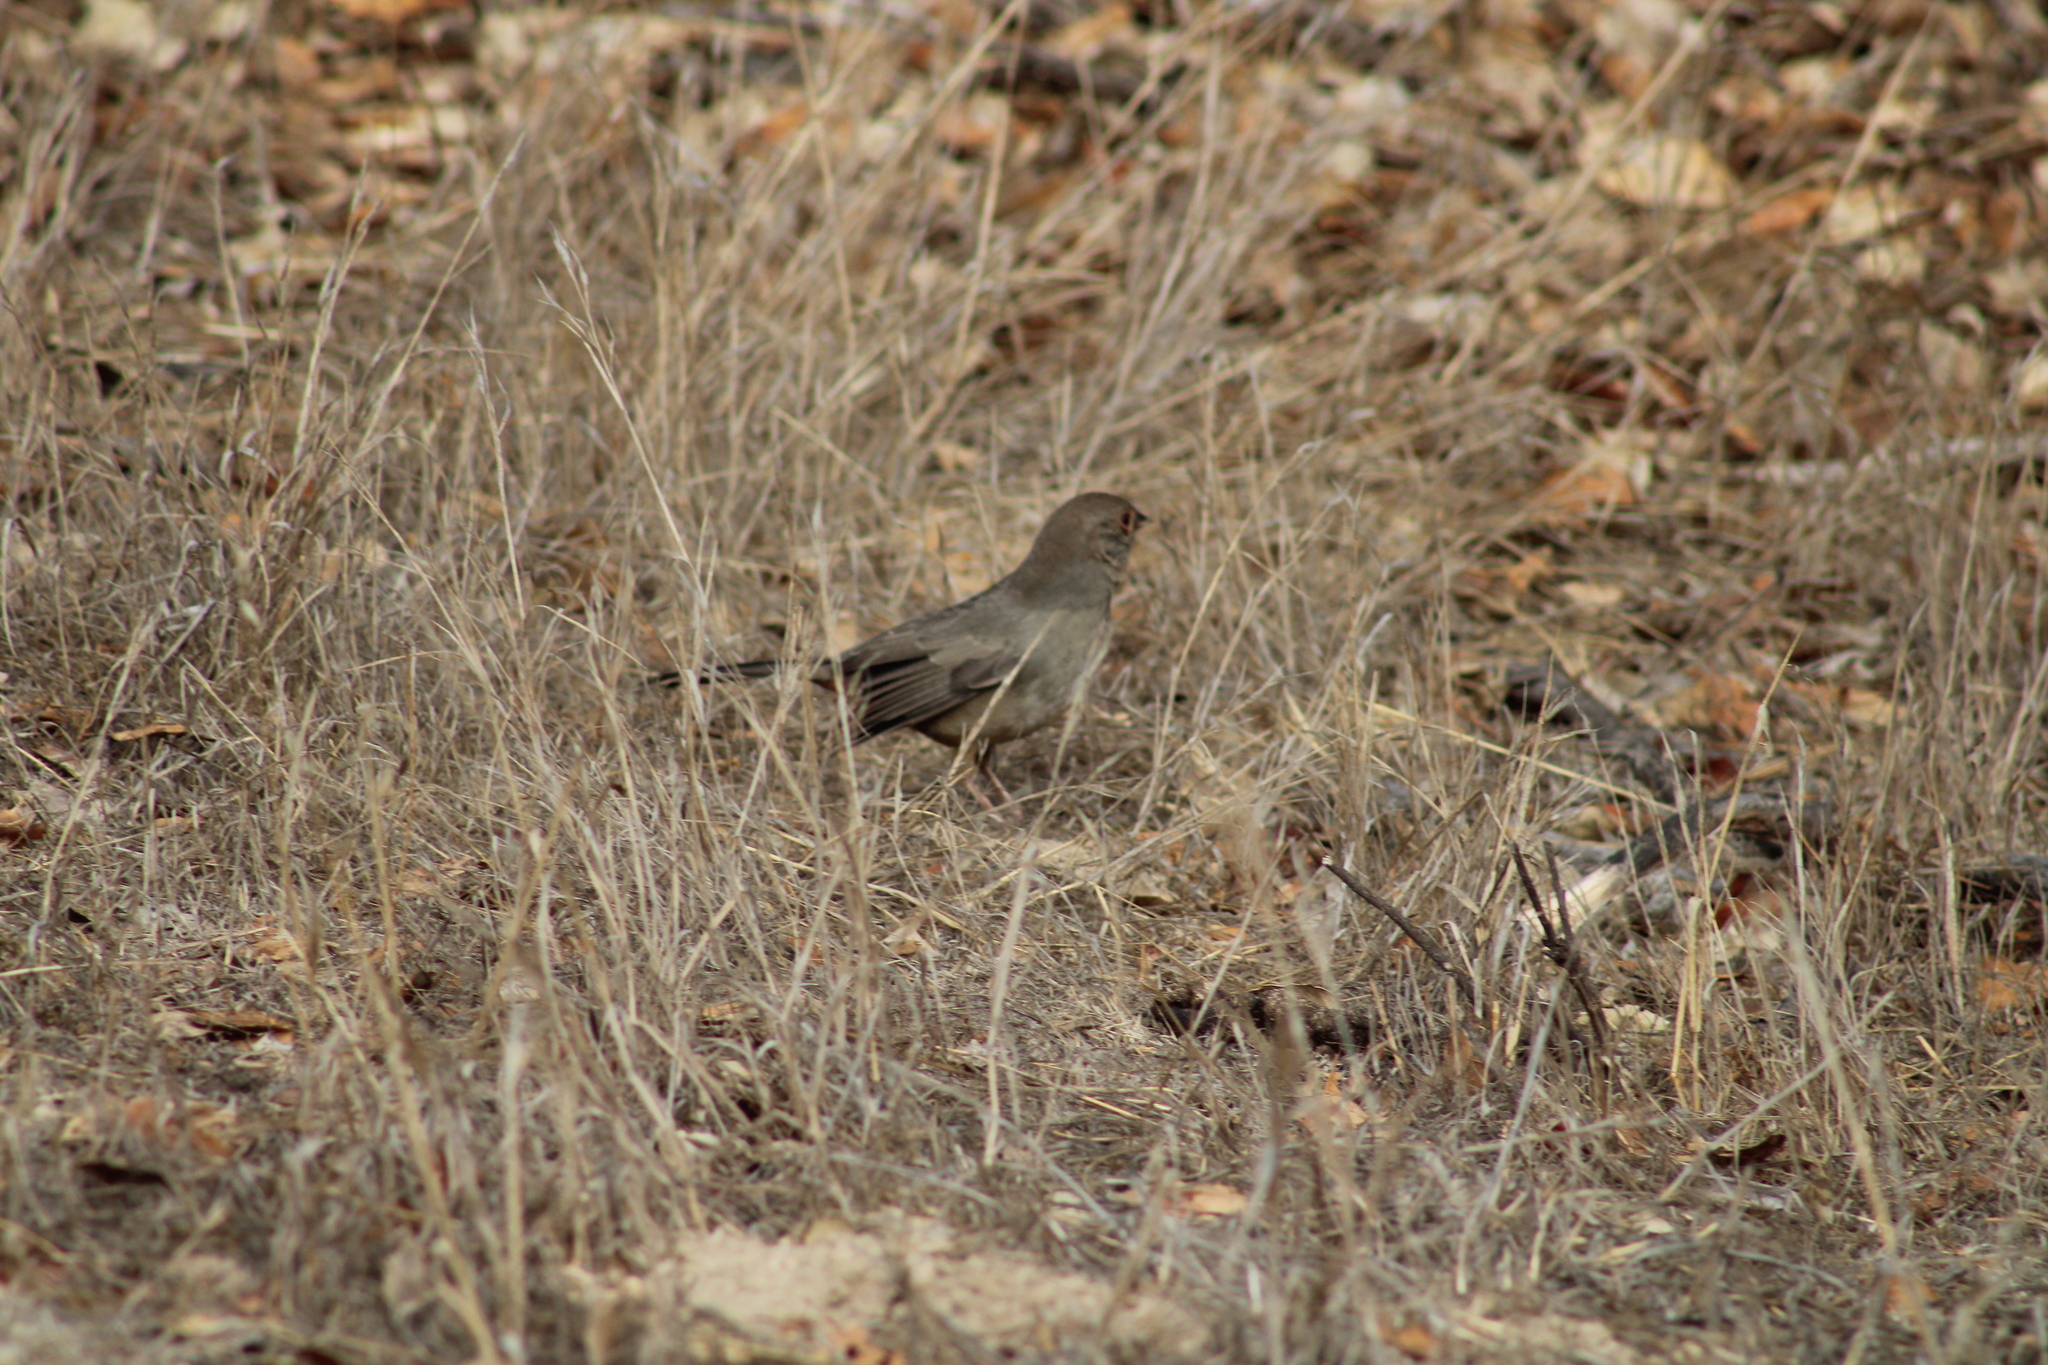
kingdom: Animalia
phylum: Chordata
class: Aves
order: Passeriformes
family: Passerellidae
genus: Melozone
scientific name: Melozone crissalis
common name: California towhee
